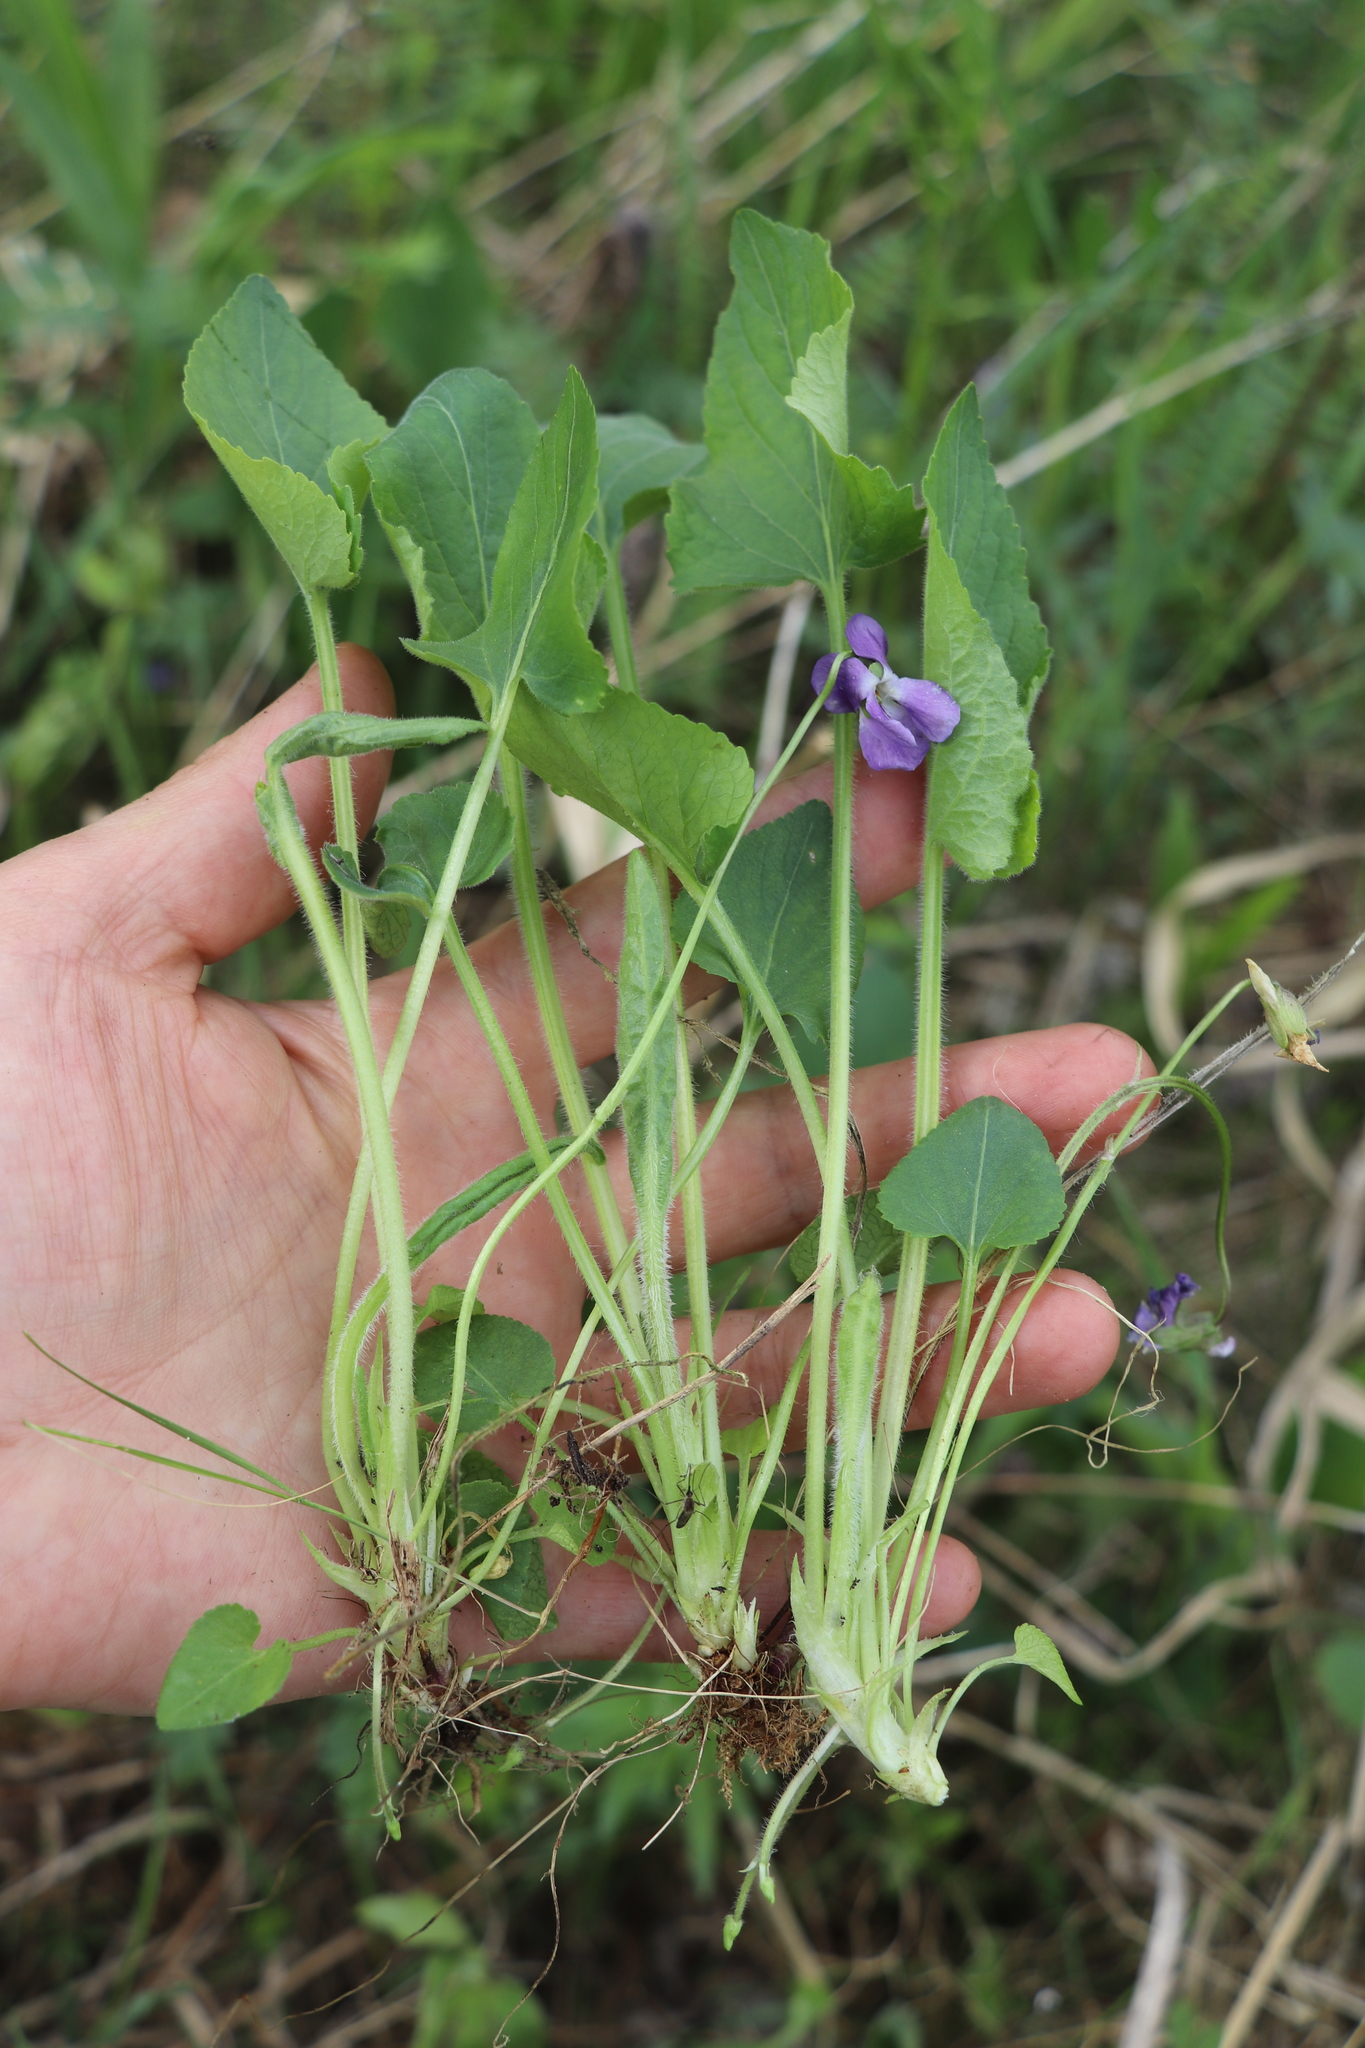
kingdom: Plantae
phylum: Tracheophyta
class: Magnoliopsida
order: Malpighiales
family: Violaceae
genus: Viola
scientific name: Viola hirta
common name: Hairy violet
